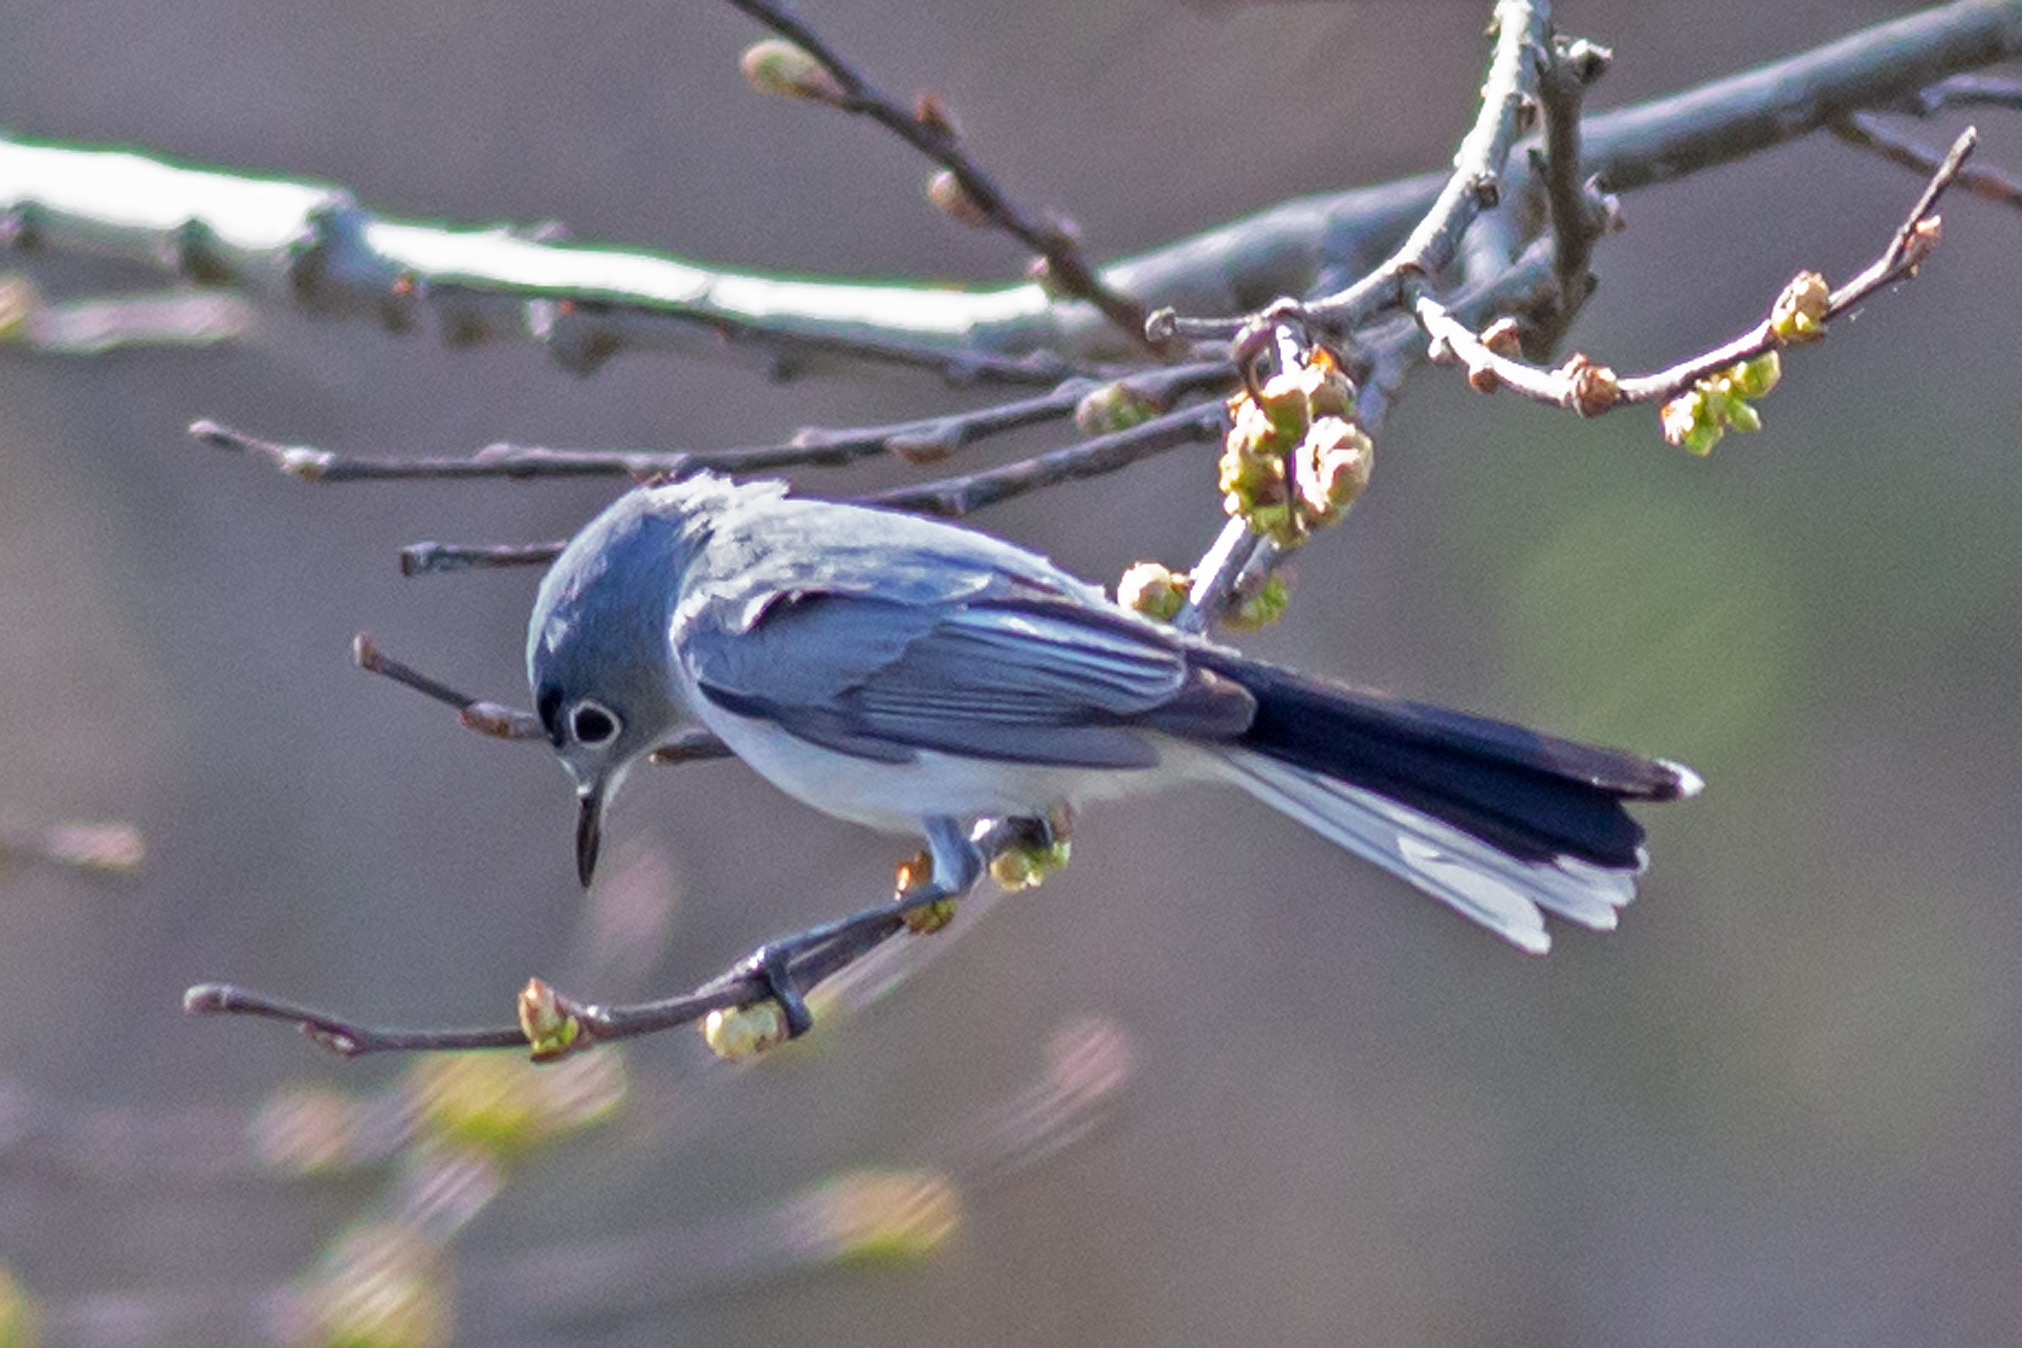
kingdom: Animalia
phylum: Chordata
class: Aves
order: Passeriformes
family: Polioptilidae
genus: Polioptila
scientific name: Polioptila caerulea
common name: Blue-gray gnatcatcher
